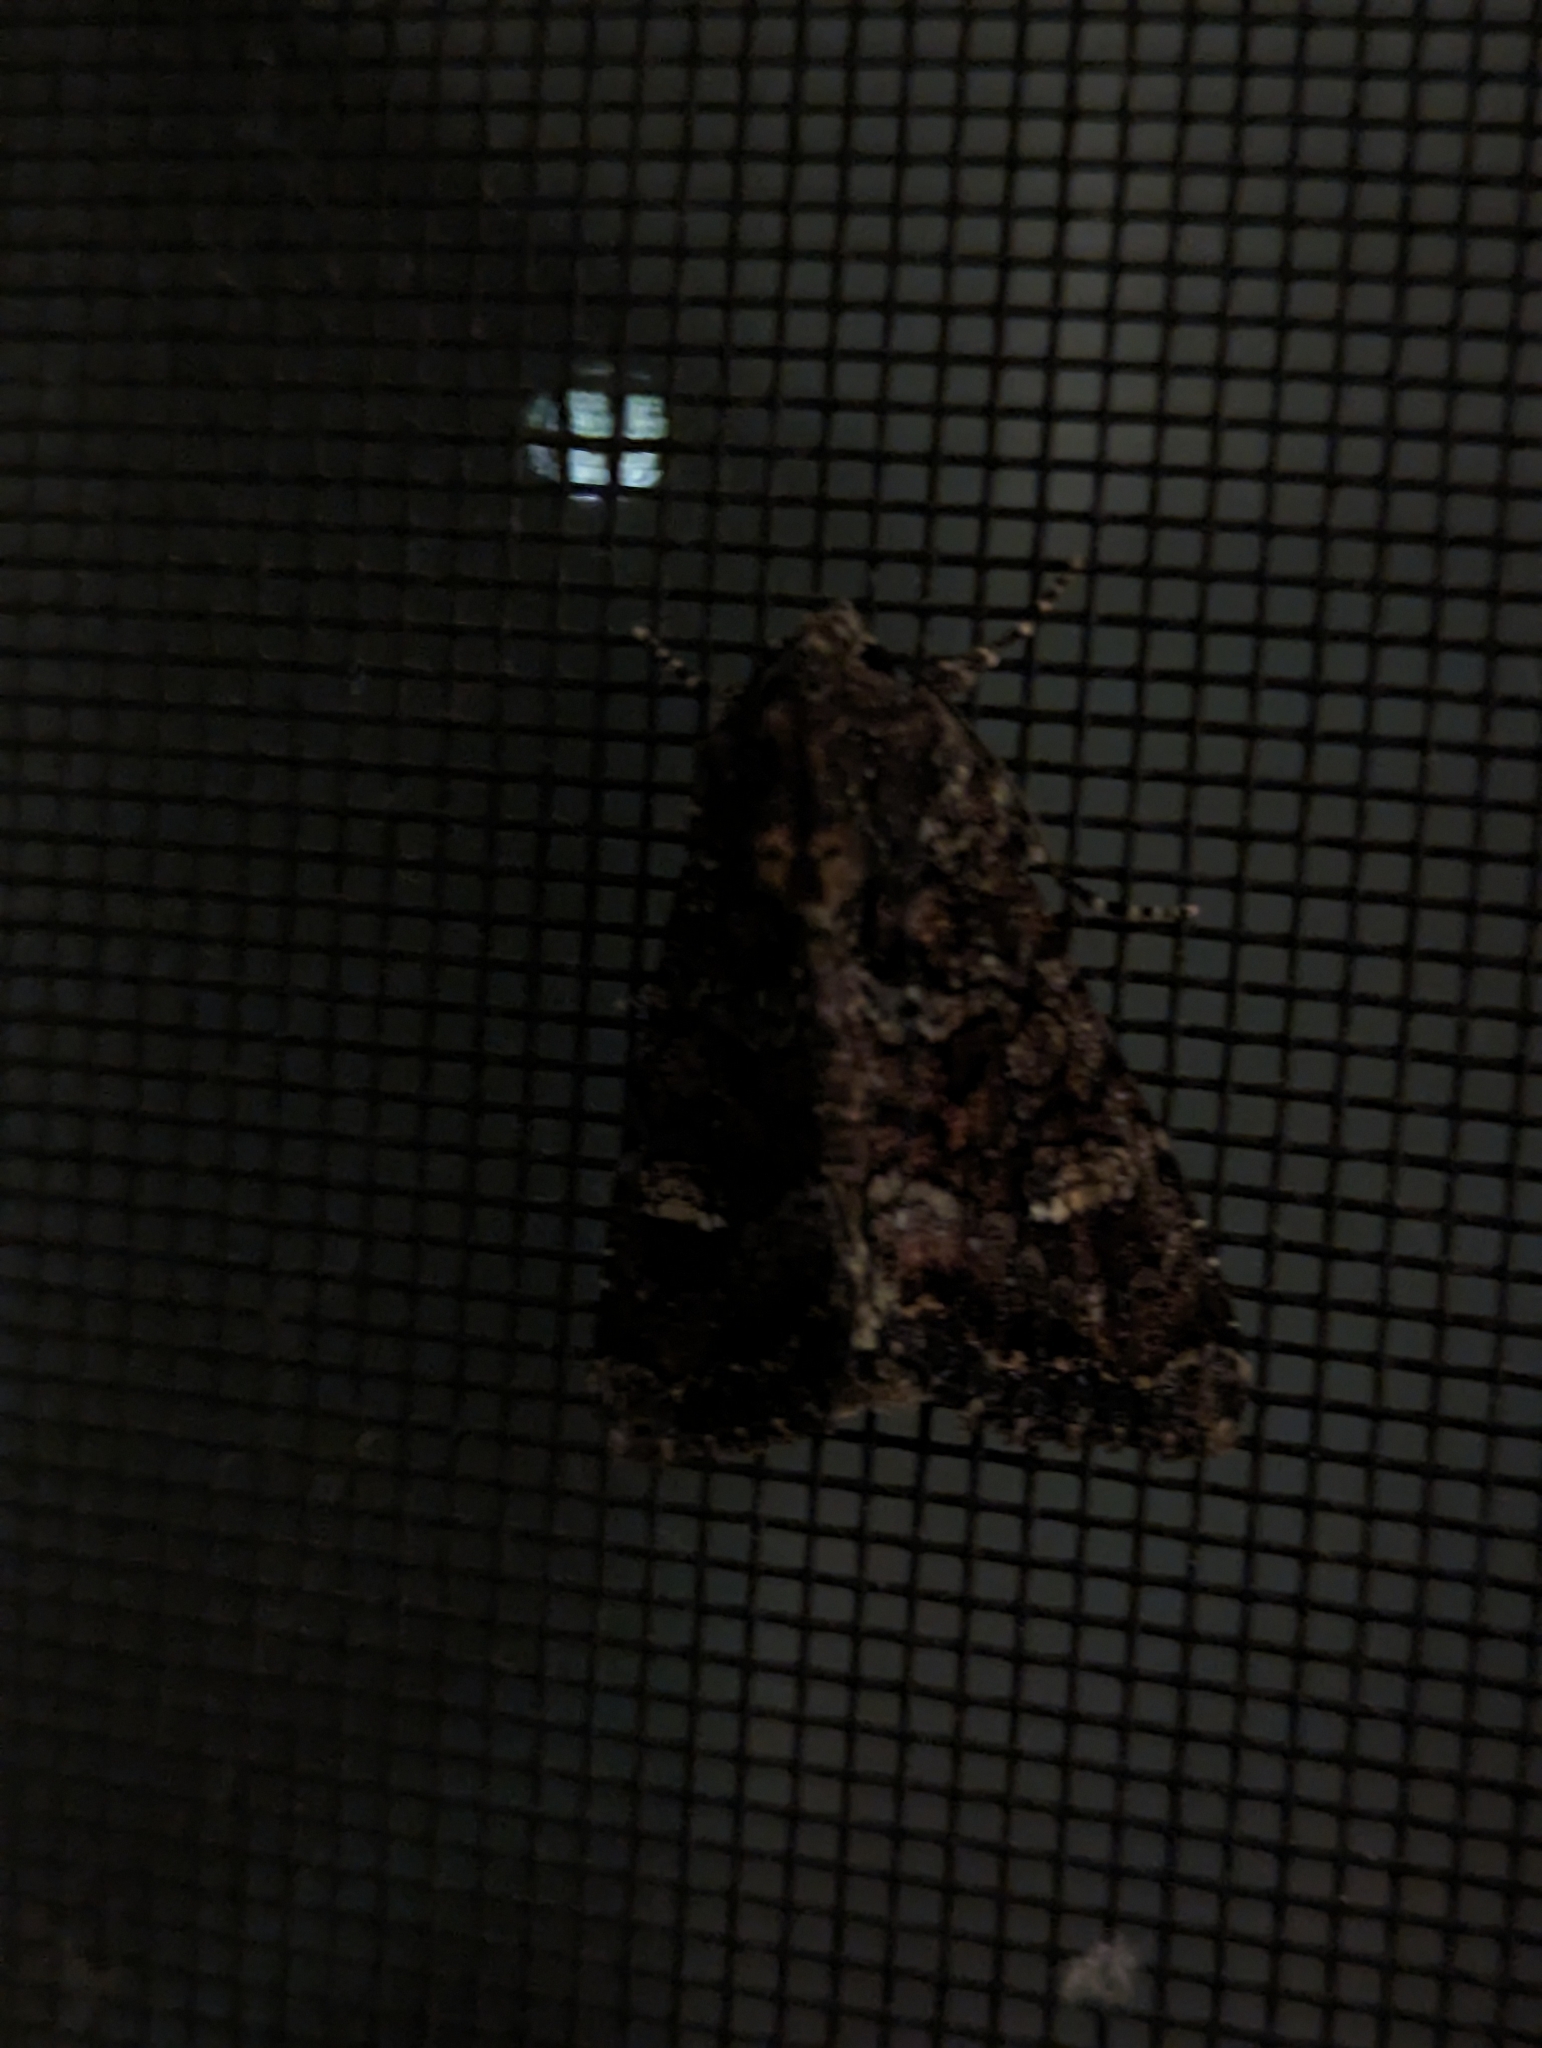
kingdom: Animalia
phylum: Arthropoda
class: Insecta
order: Lepidoptera
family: Noctuidae
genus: Apamea
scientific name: Apamea amputatrix
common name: Yellow-headed cutworm moth
